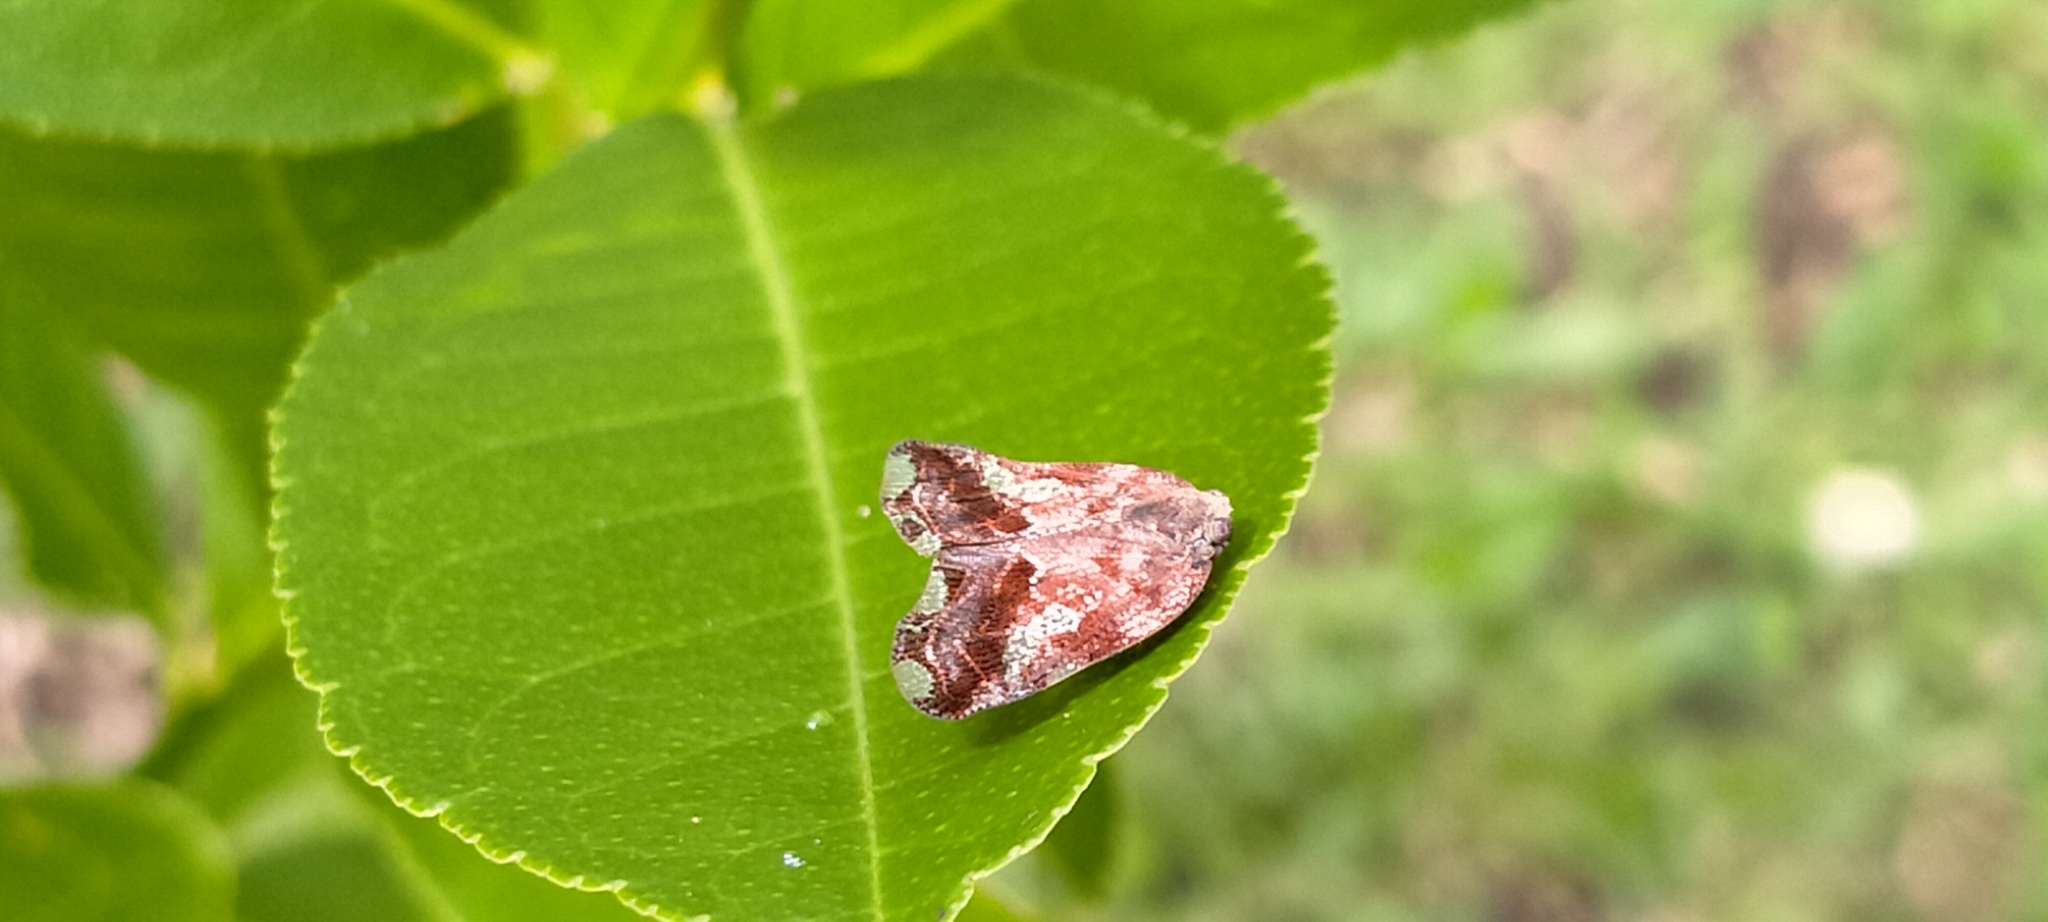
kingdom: Animalia
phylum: Arthropoda
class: Insecta
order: Hemiptera
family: Ricaniidae
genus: Ricania
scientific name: Ricania speculum
